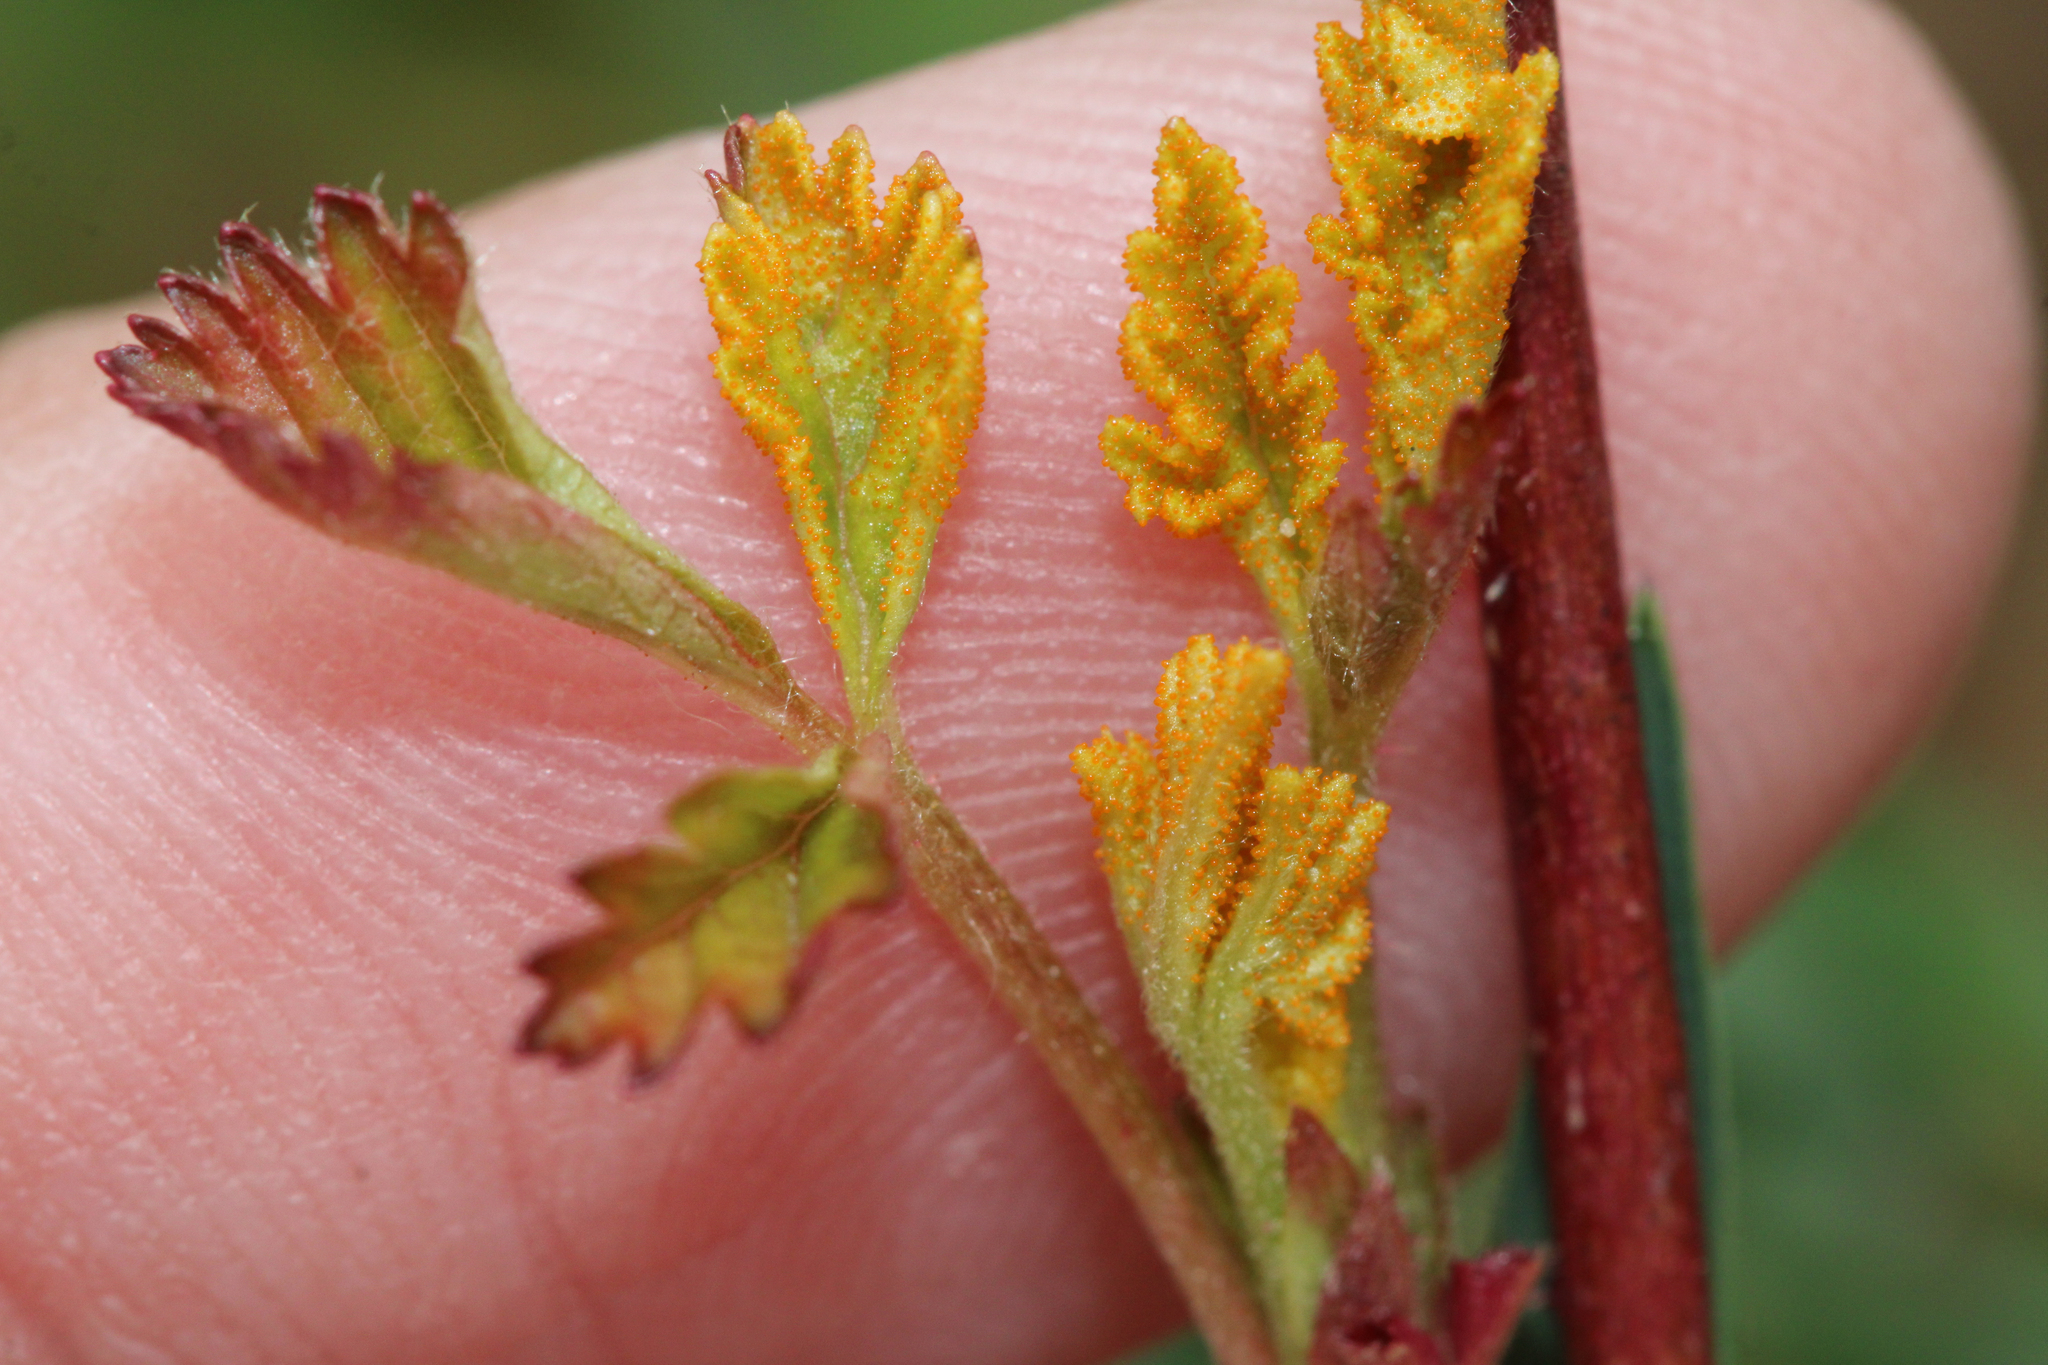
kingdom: Fungi
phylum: Basidiomycota
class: Pucciniomycetes
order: Pucciniales
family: Phragmidiaceae
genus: Arthuriomyces
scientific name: Arthuriomyces peckianus
